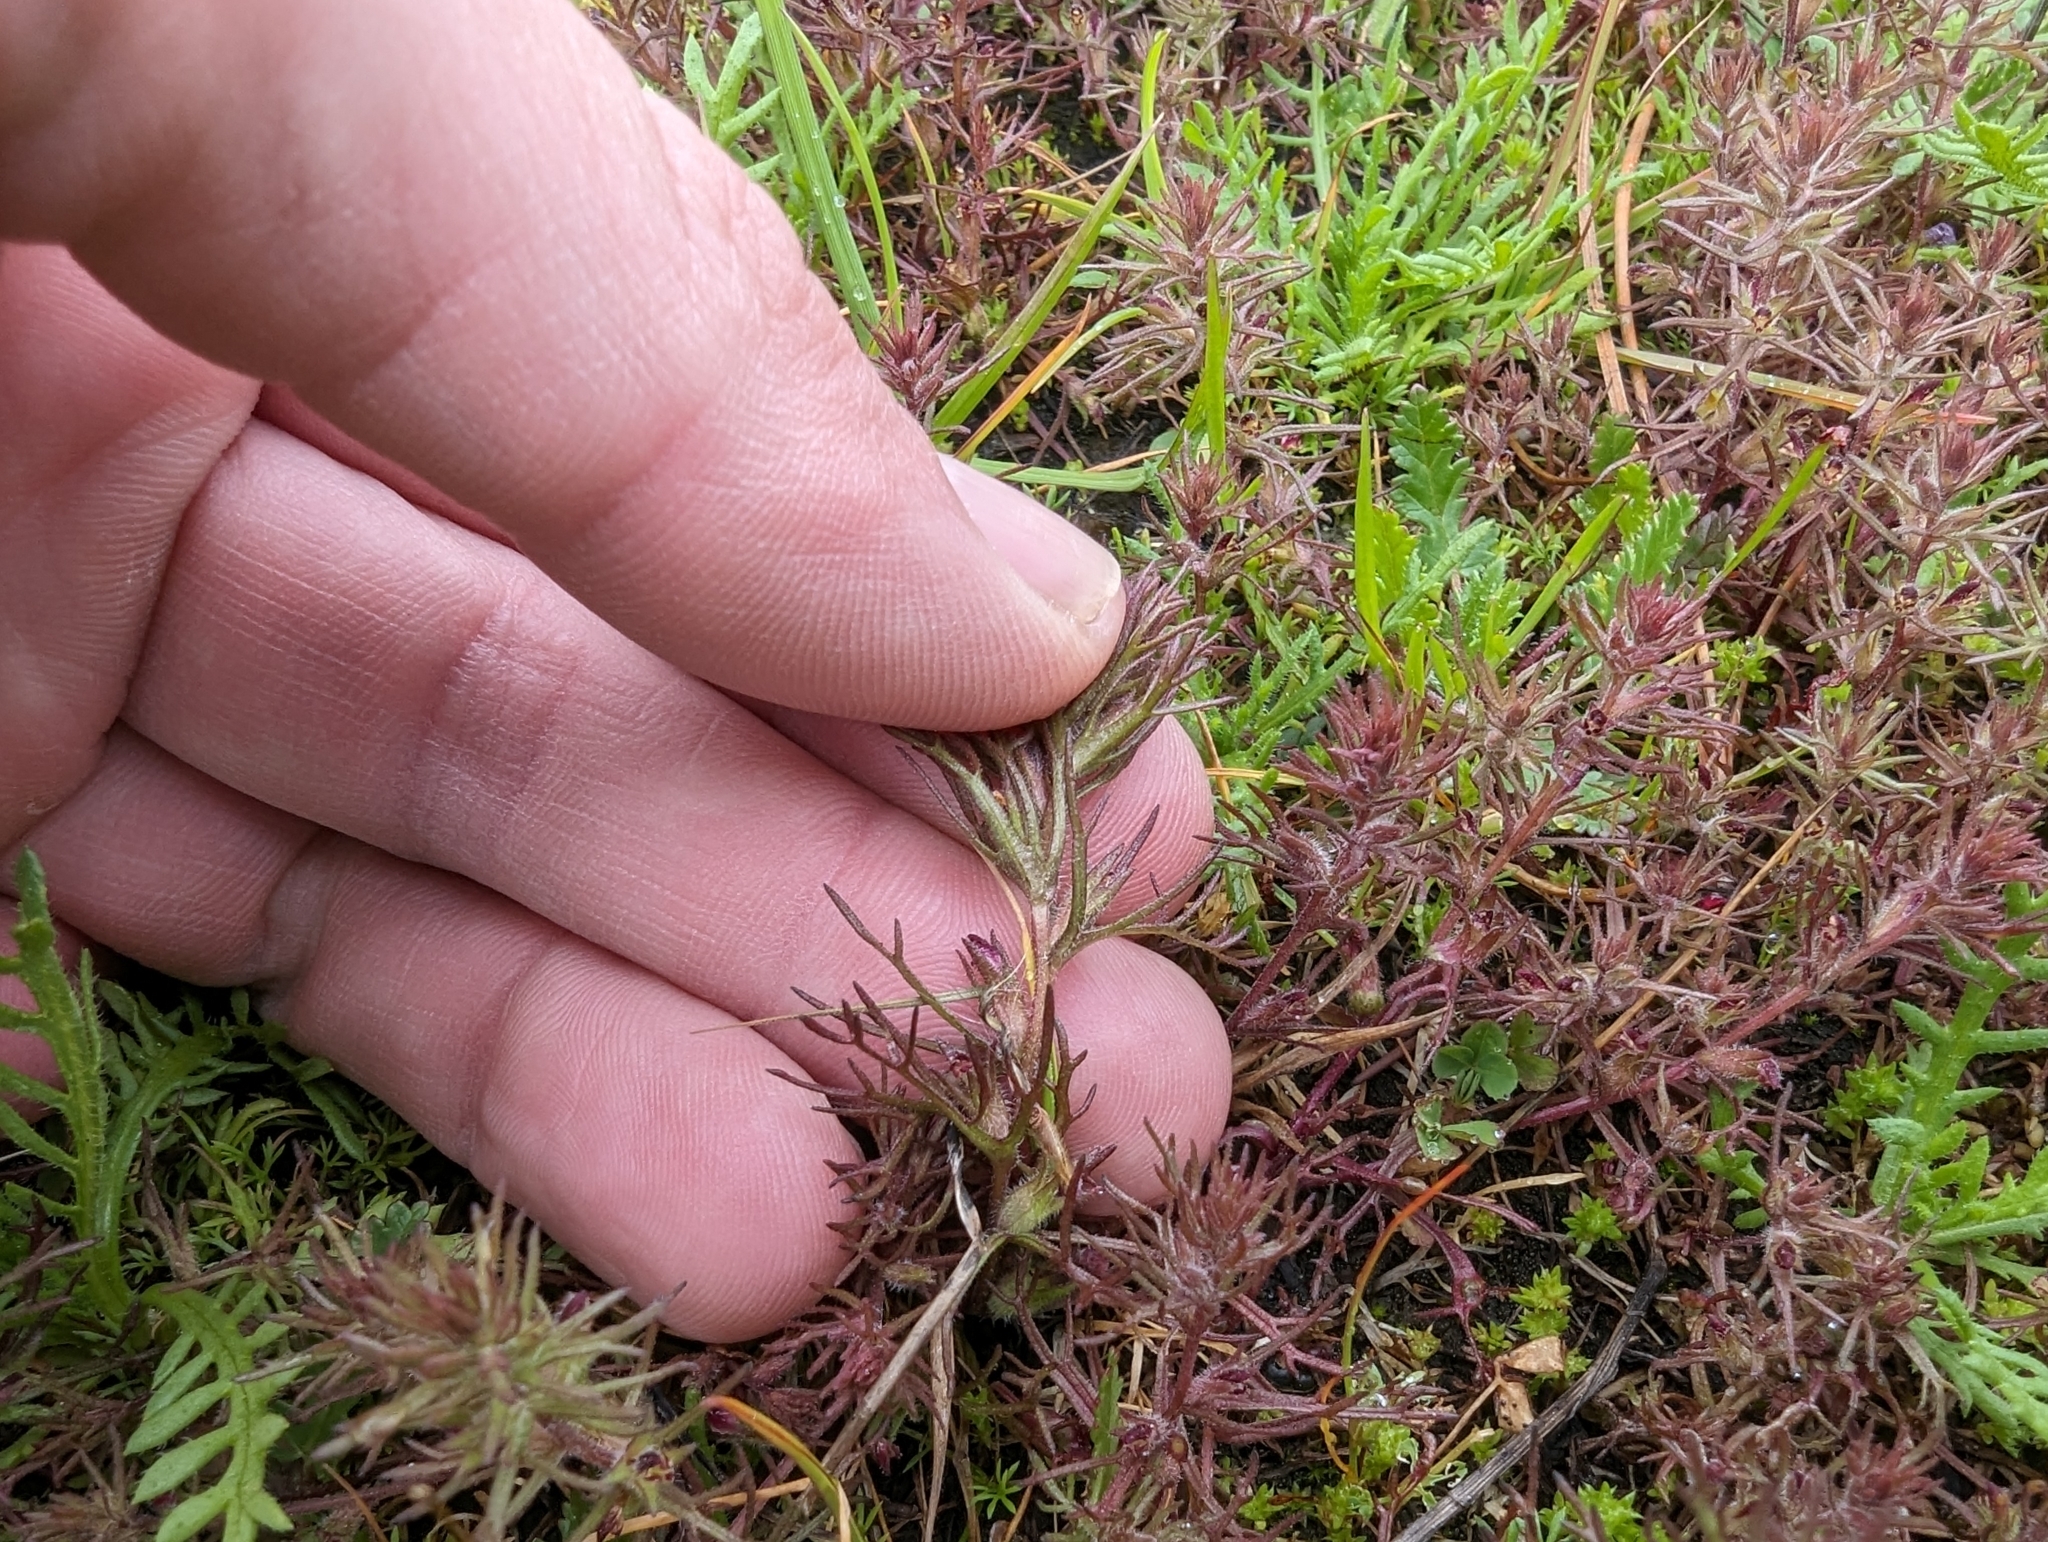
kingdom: Plantae
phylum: Tracheophyta
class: Magnoliopsida
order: Lamiales
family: Orobanchaceae
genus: Triphysaria
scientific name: Triphysaria pusilla
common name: Dwarf false owl-clover
